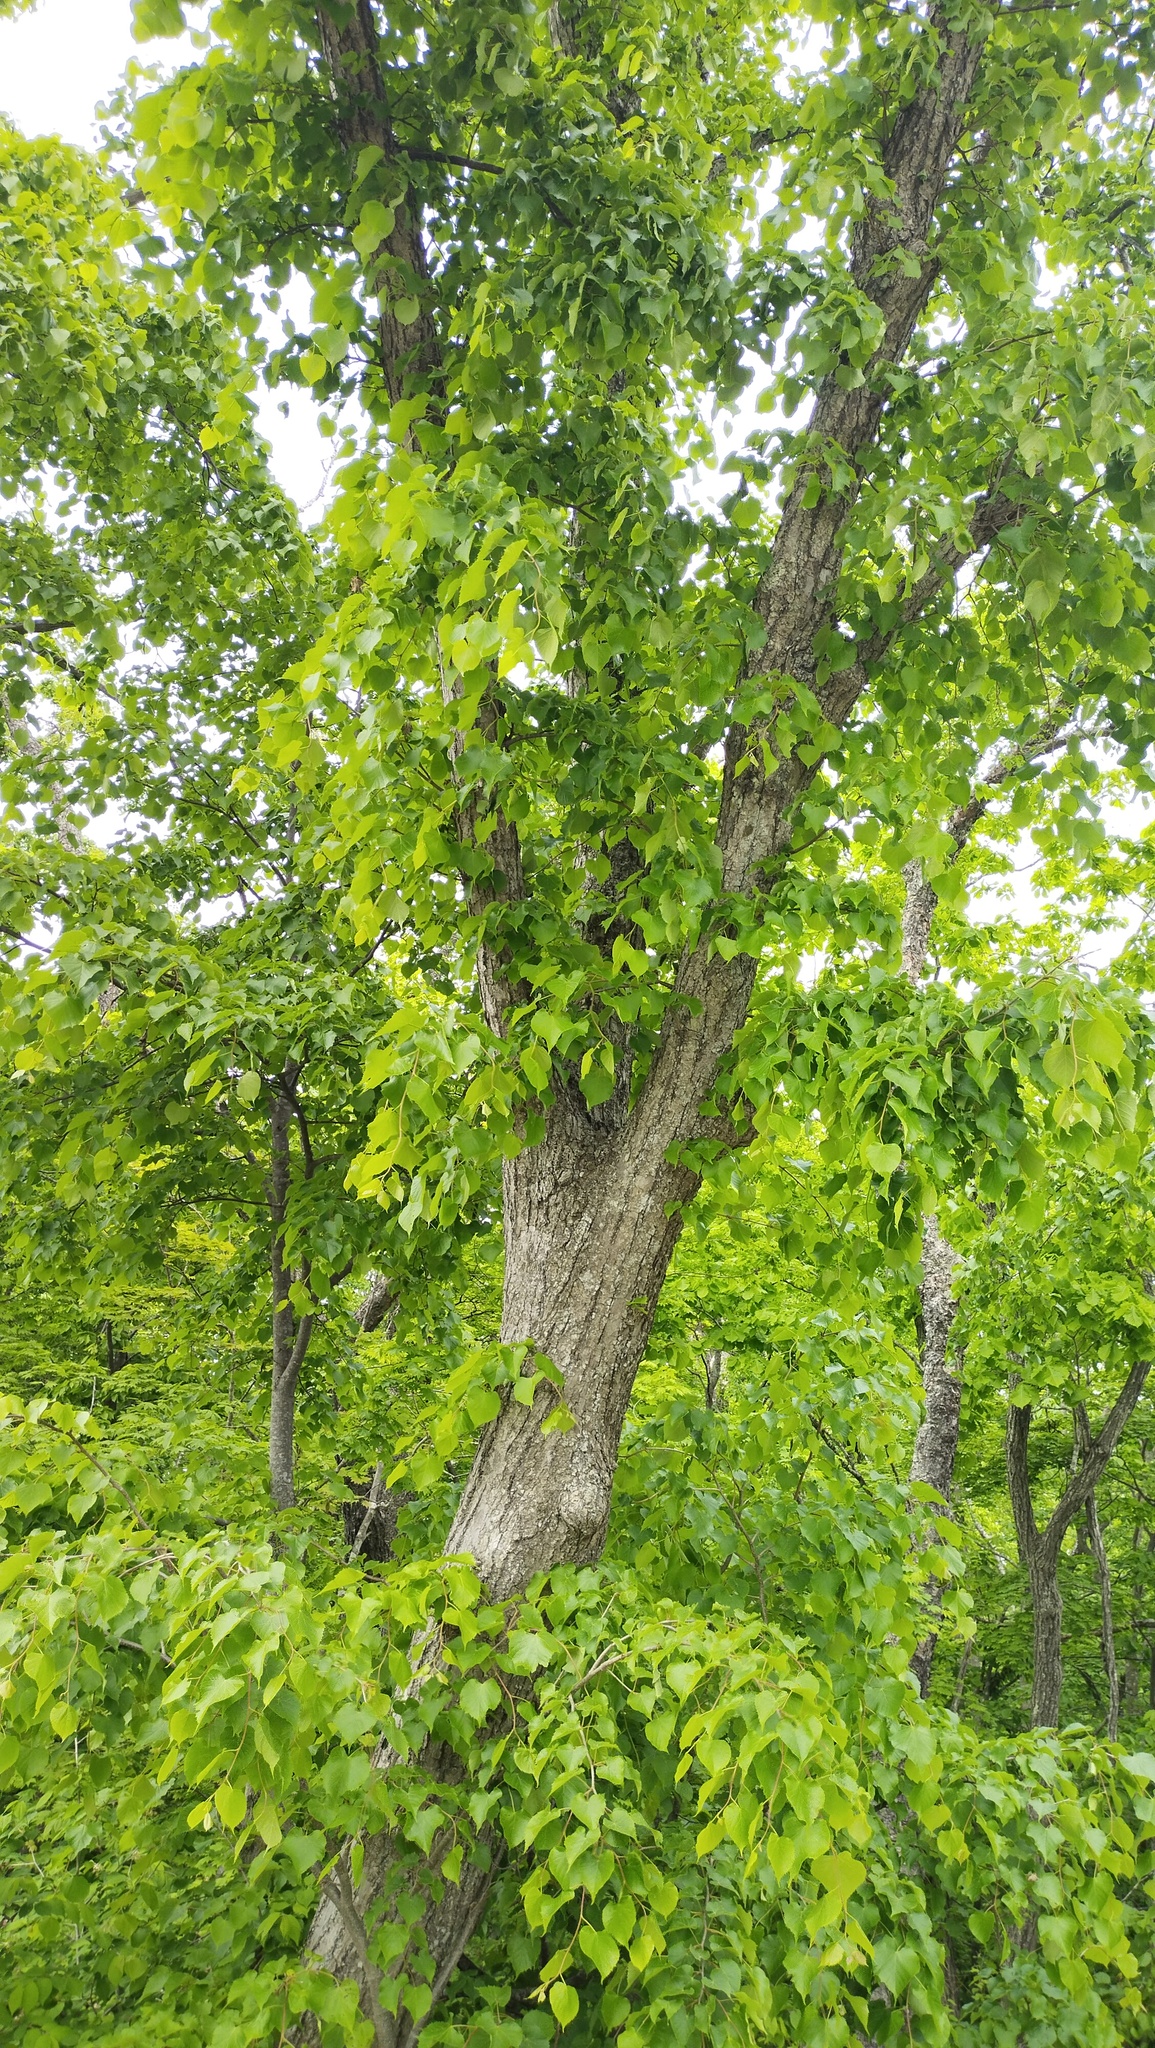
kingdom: Plantae
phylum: Tracheophyta
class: Magnoliopsida
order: Malvales
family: Malvaceae
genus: Tilia
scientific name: Tilia amurensis
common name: Amur lime
